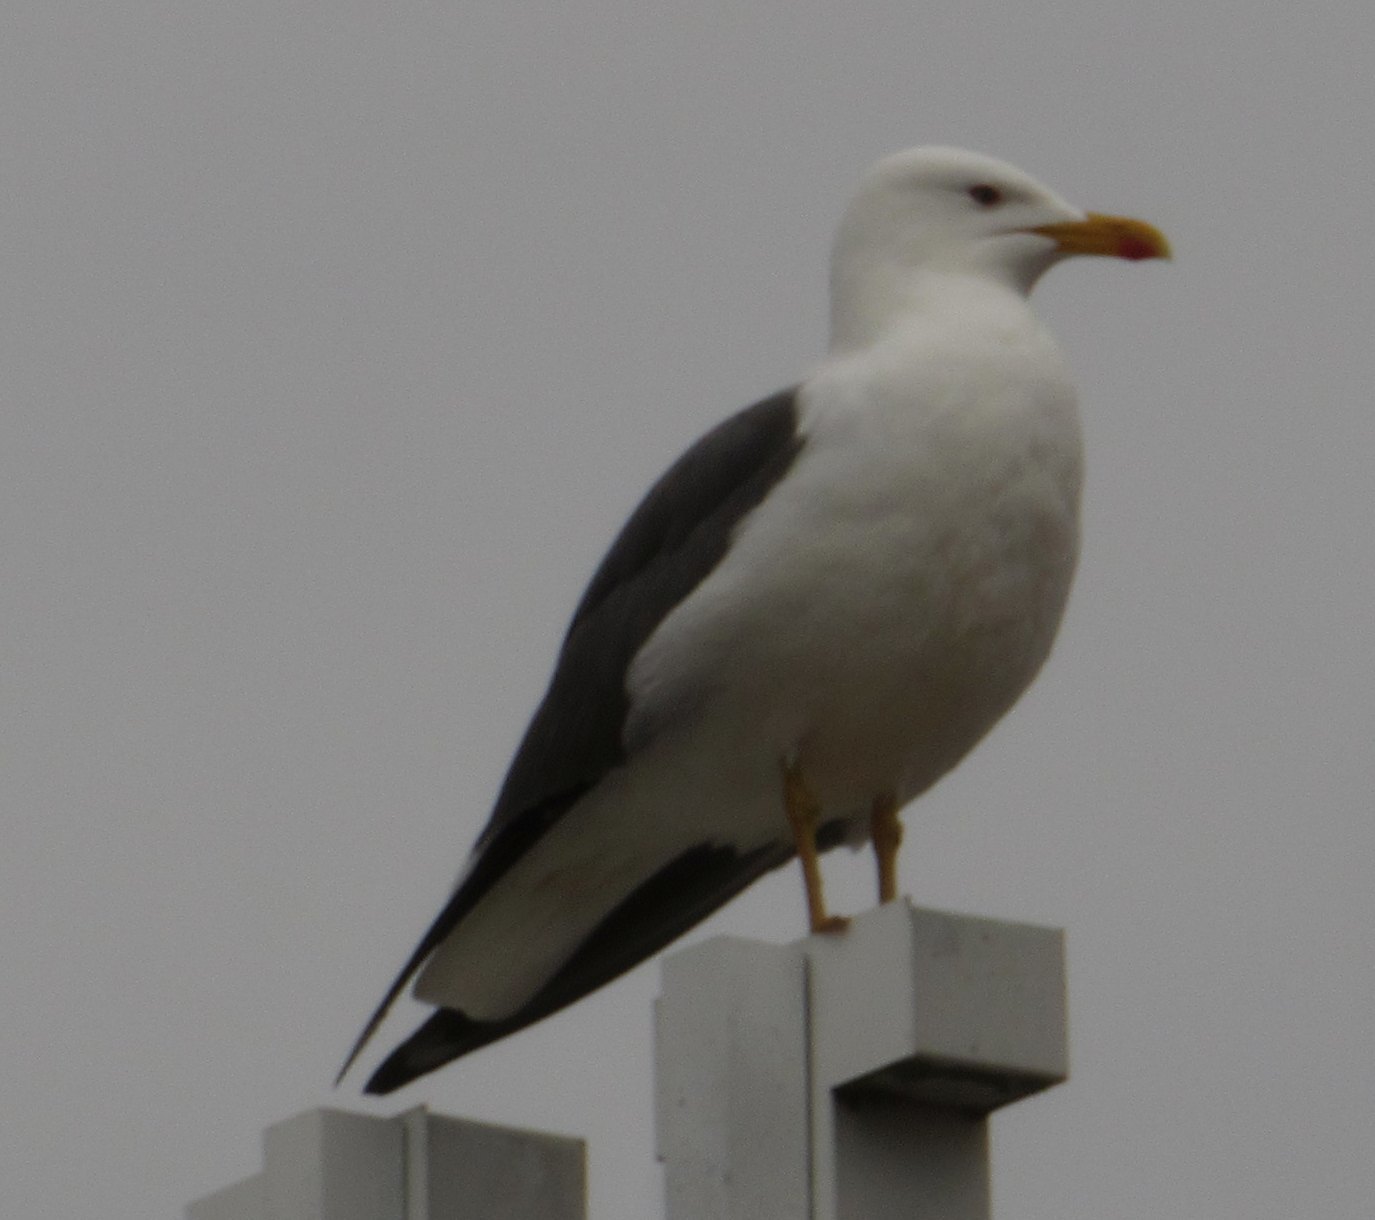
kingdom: Animalia
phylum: Chordata
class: Aves
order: Charadriiformes
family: Laridae
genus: Larus
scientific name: Larus fuscus
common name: Lesser black-backed gull
